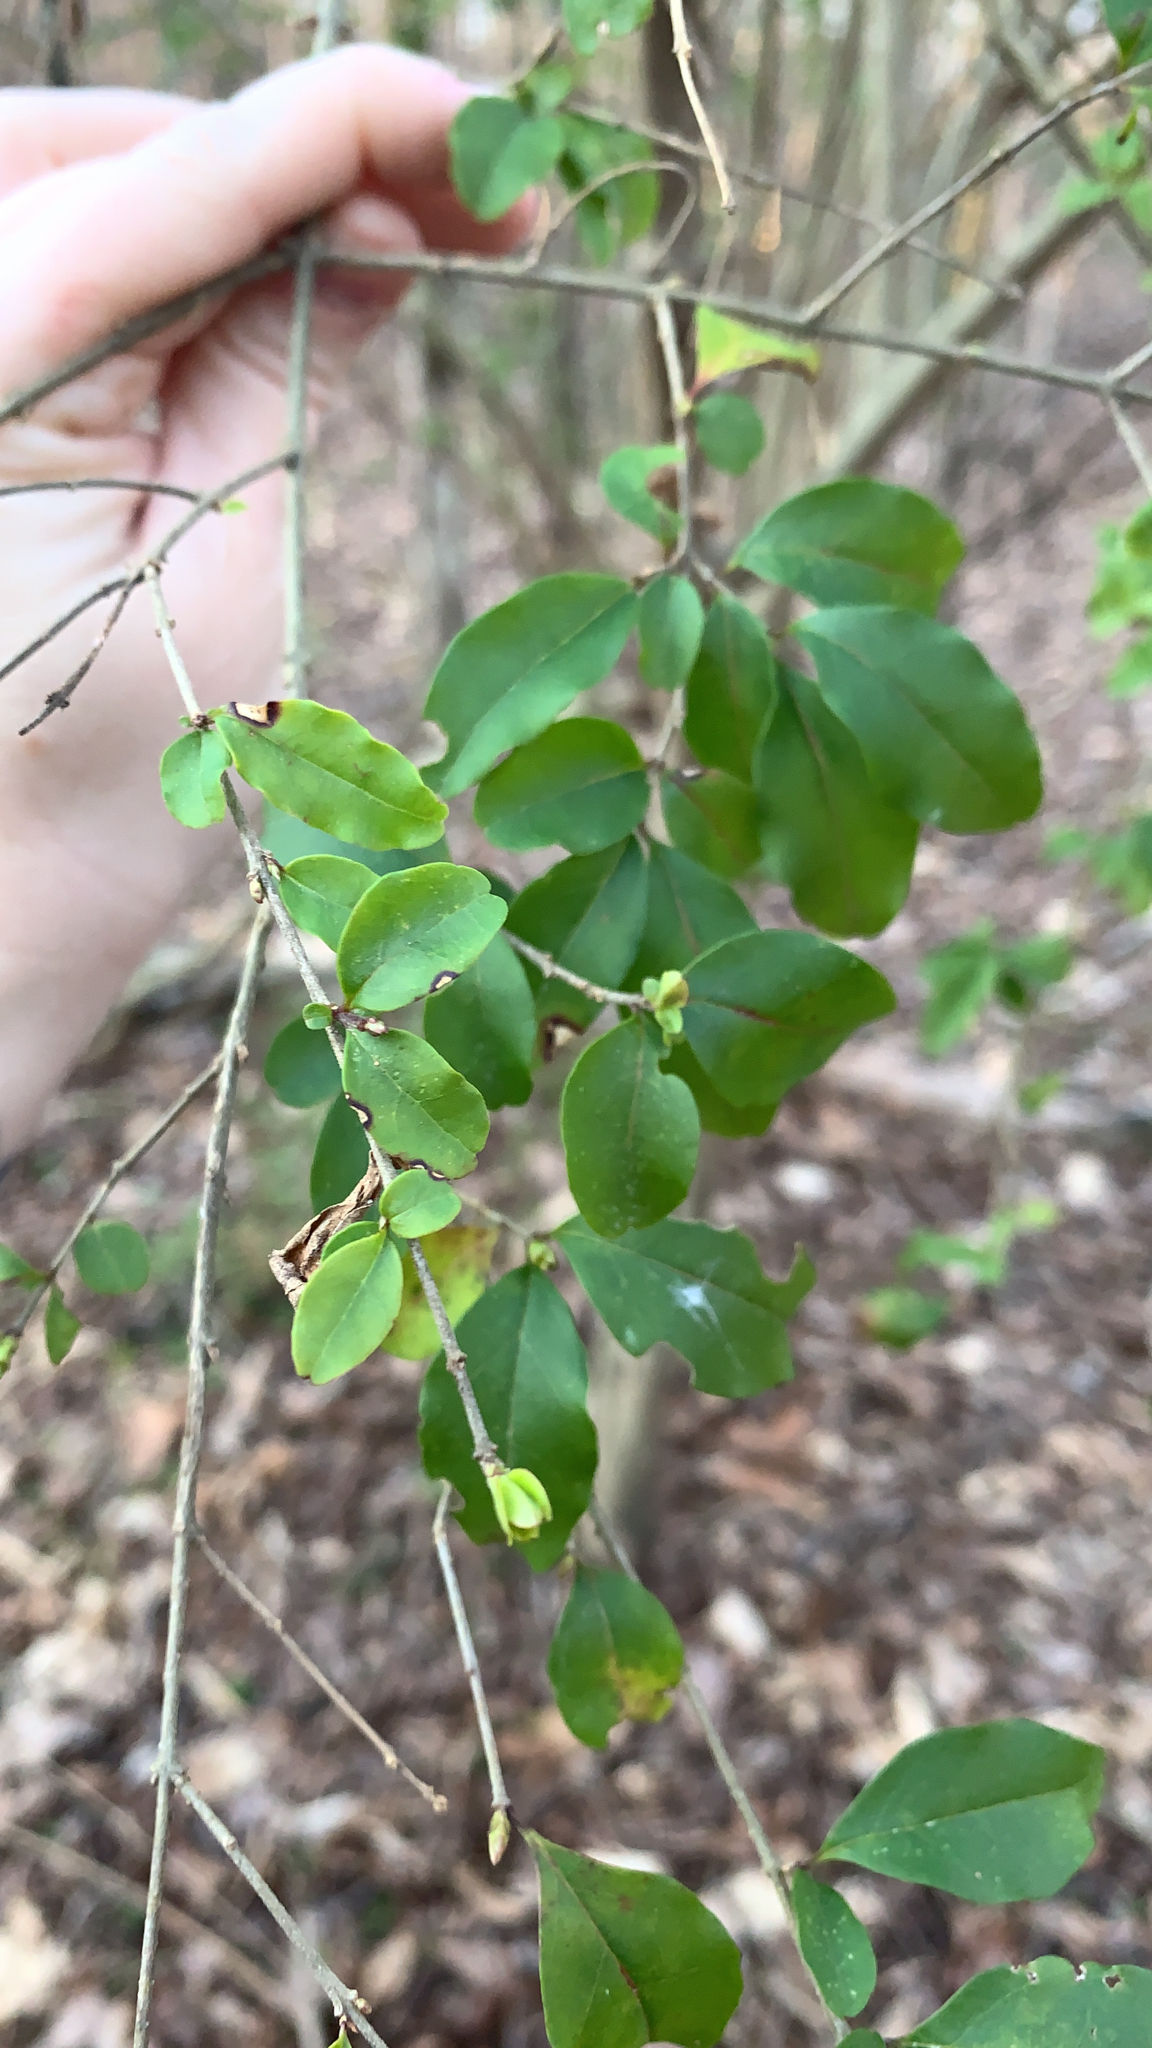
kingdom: Plantae
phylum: Tracheophyta
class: Magnoliopsida
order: Lamiales
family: Oleaceae
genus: Ligustrum
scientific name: Ligustrum sinense
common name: Chinese privet
